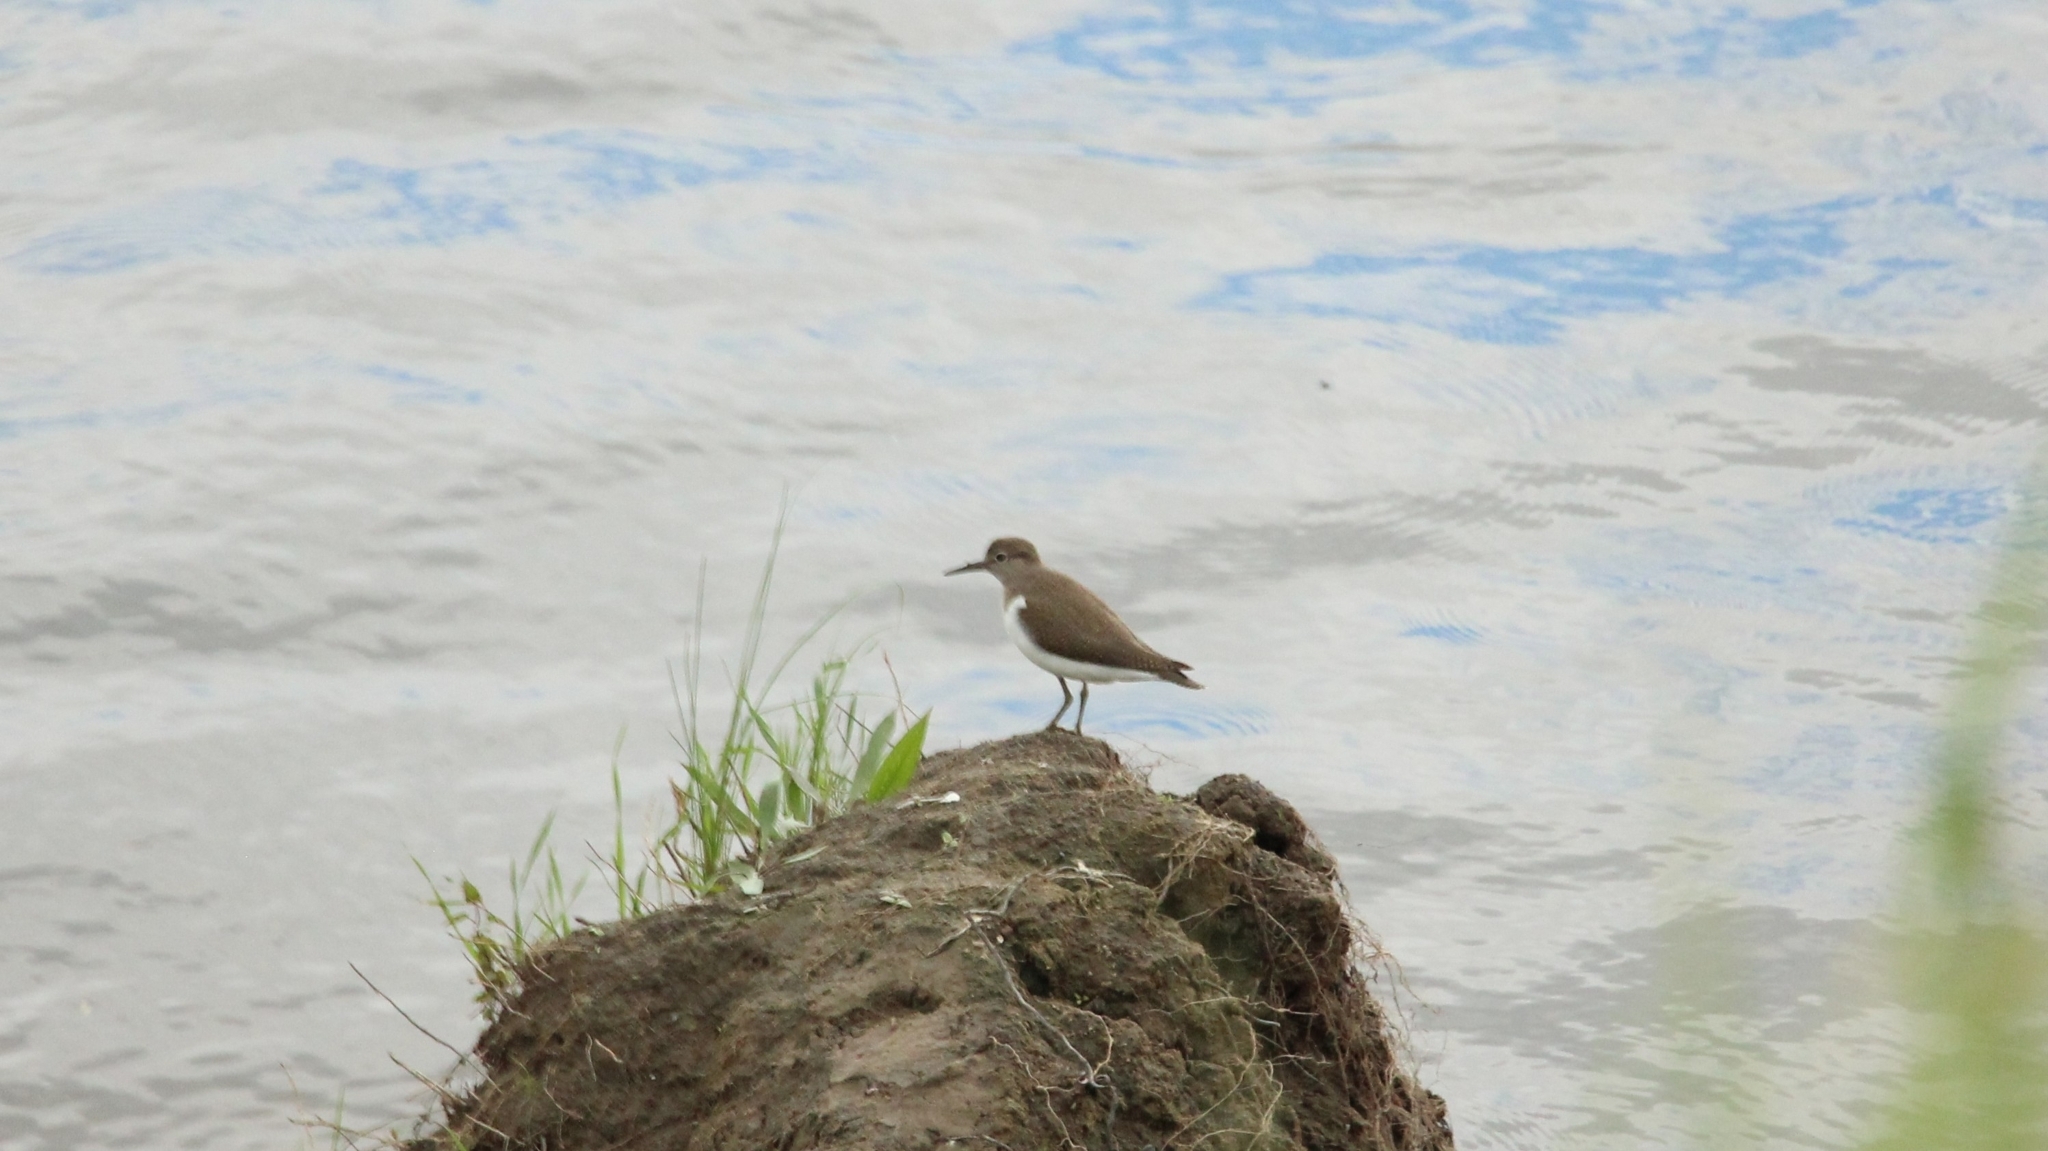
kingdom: Animalia
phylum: Chordata
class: Aves
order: Charadriiformes
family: Scolopacidae
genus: Actitis
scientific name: Actitis hypoleucos
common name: Common sandpiper
